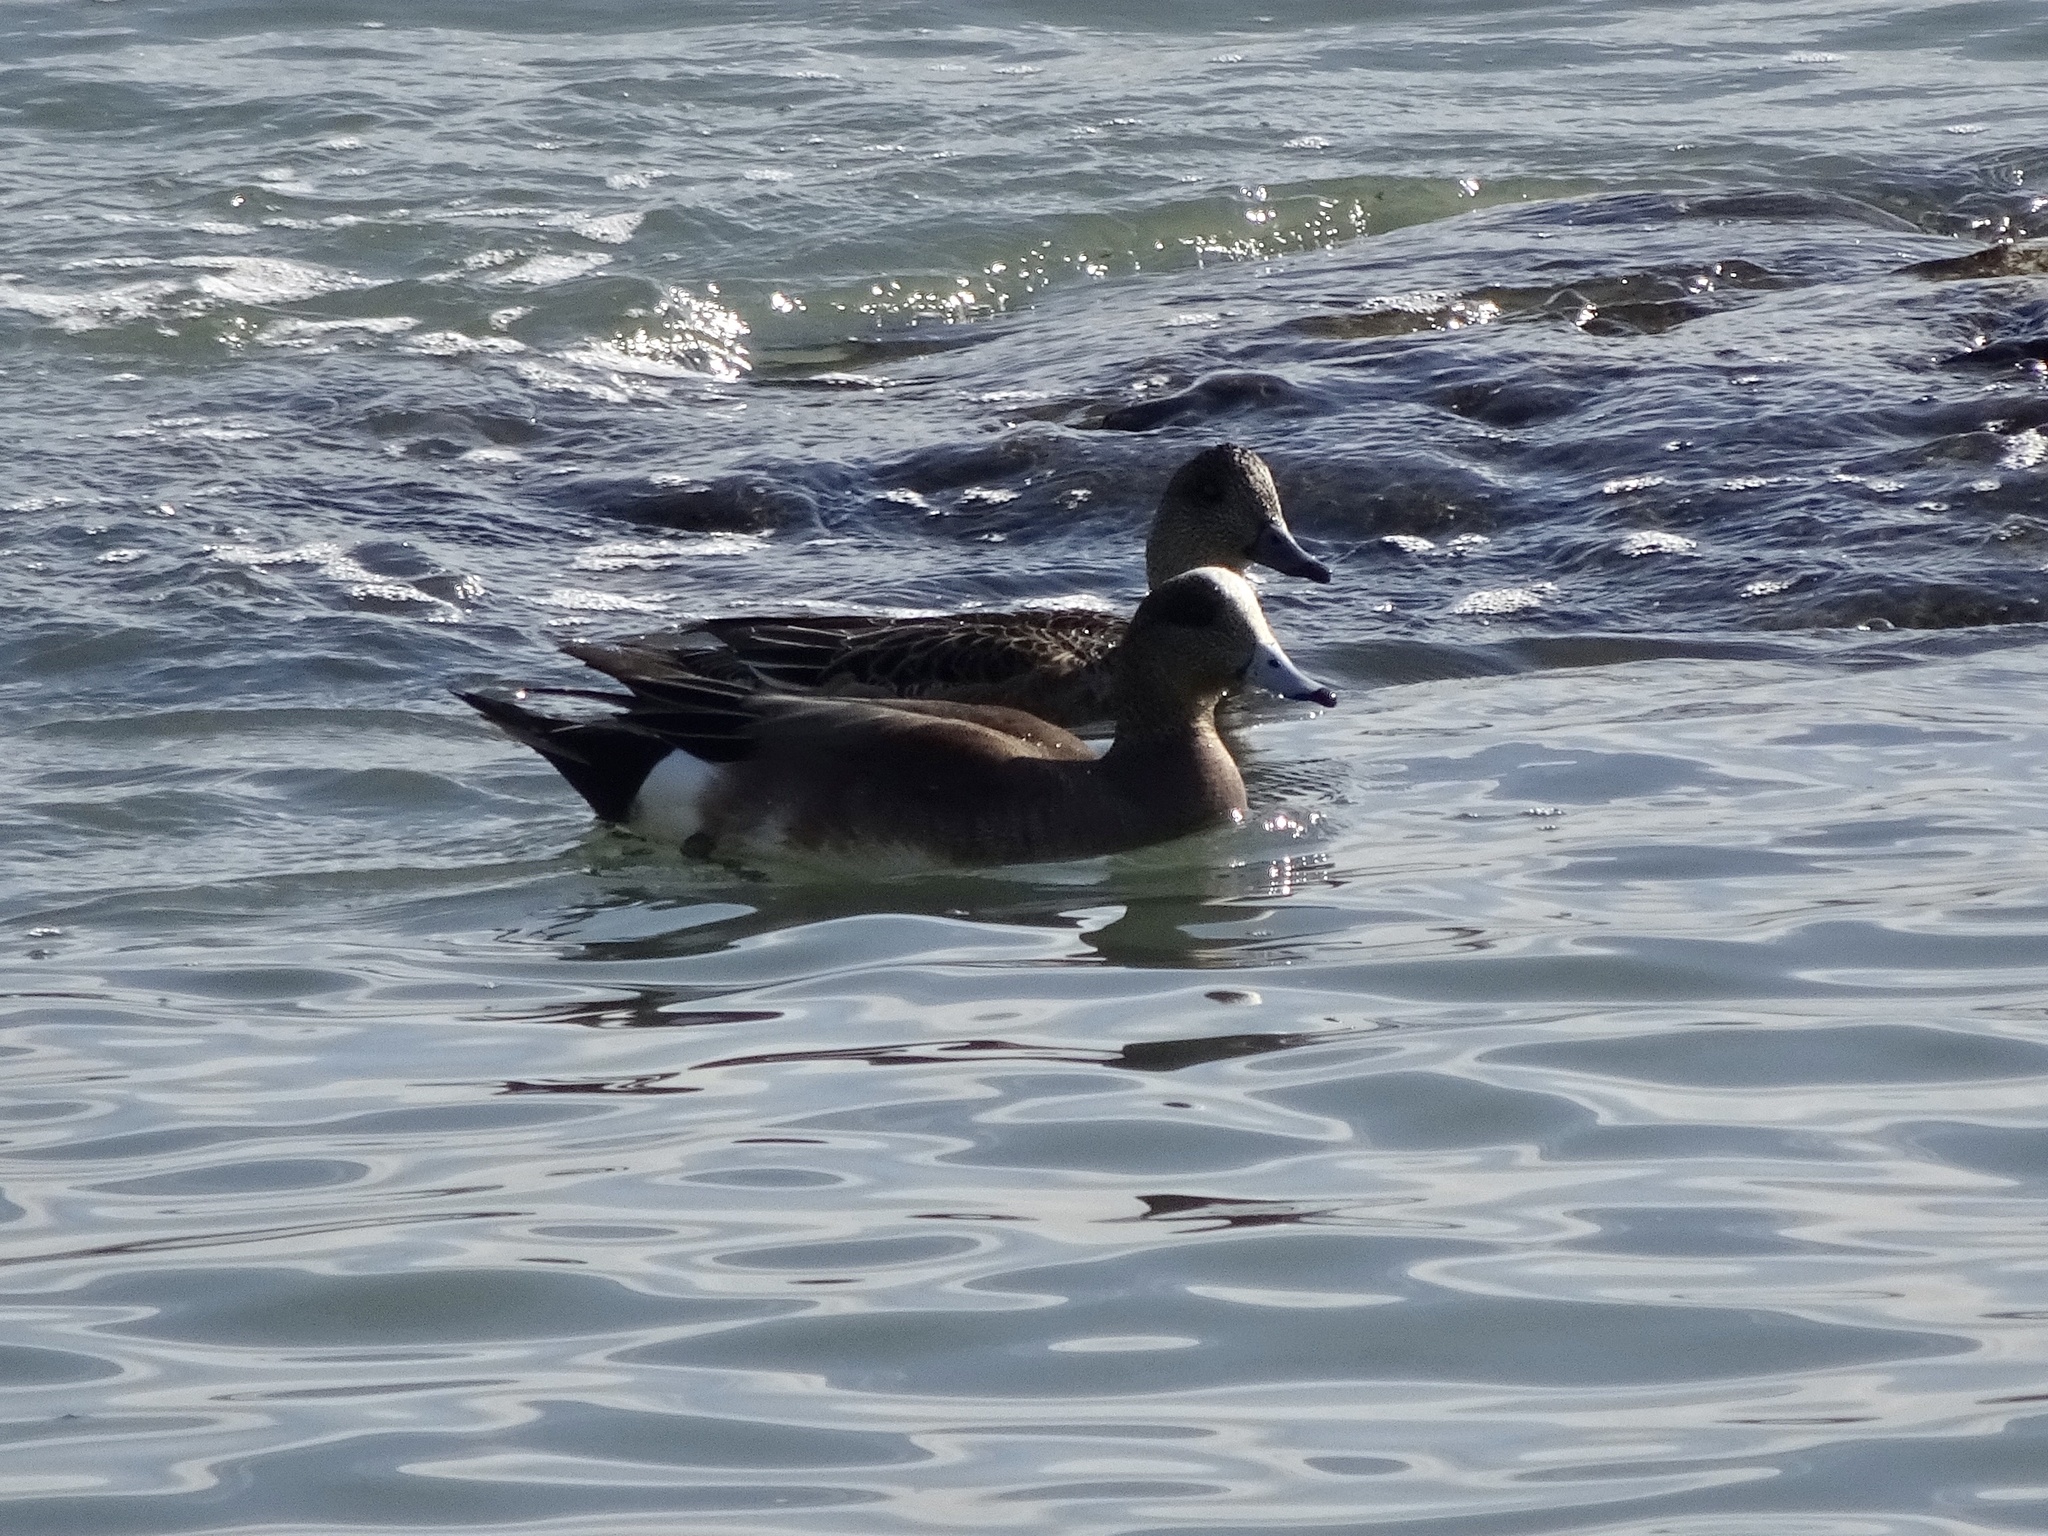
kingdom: Animalia
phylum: Chordata
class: Aves
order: Anseriformes
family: Anatidae
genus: Mareca
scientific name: Mareca americana
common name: American wigeon
